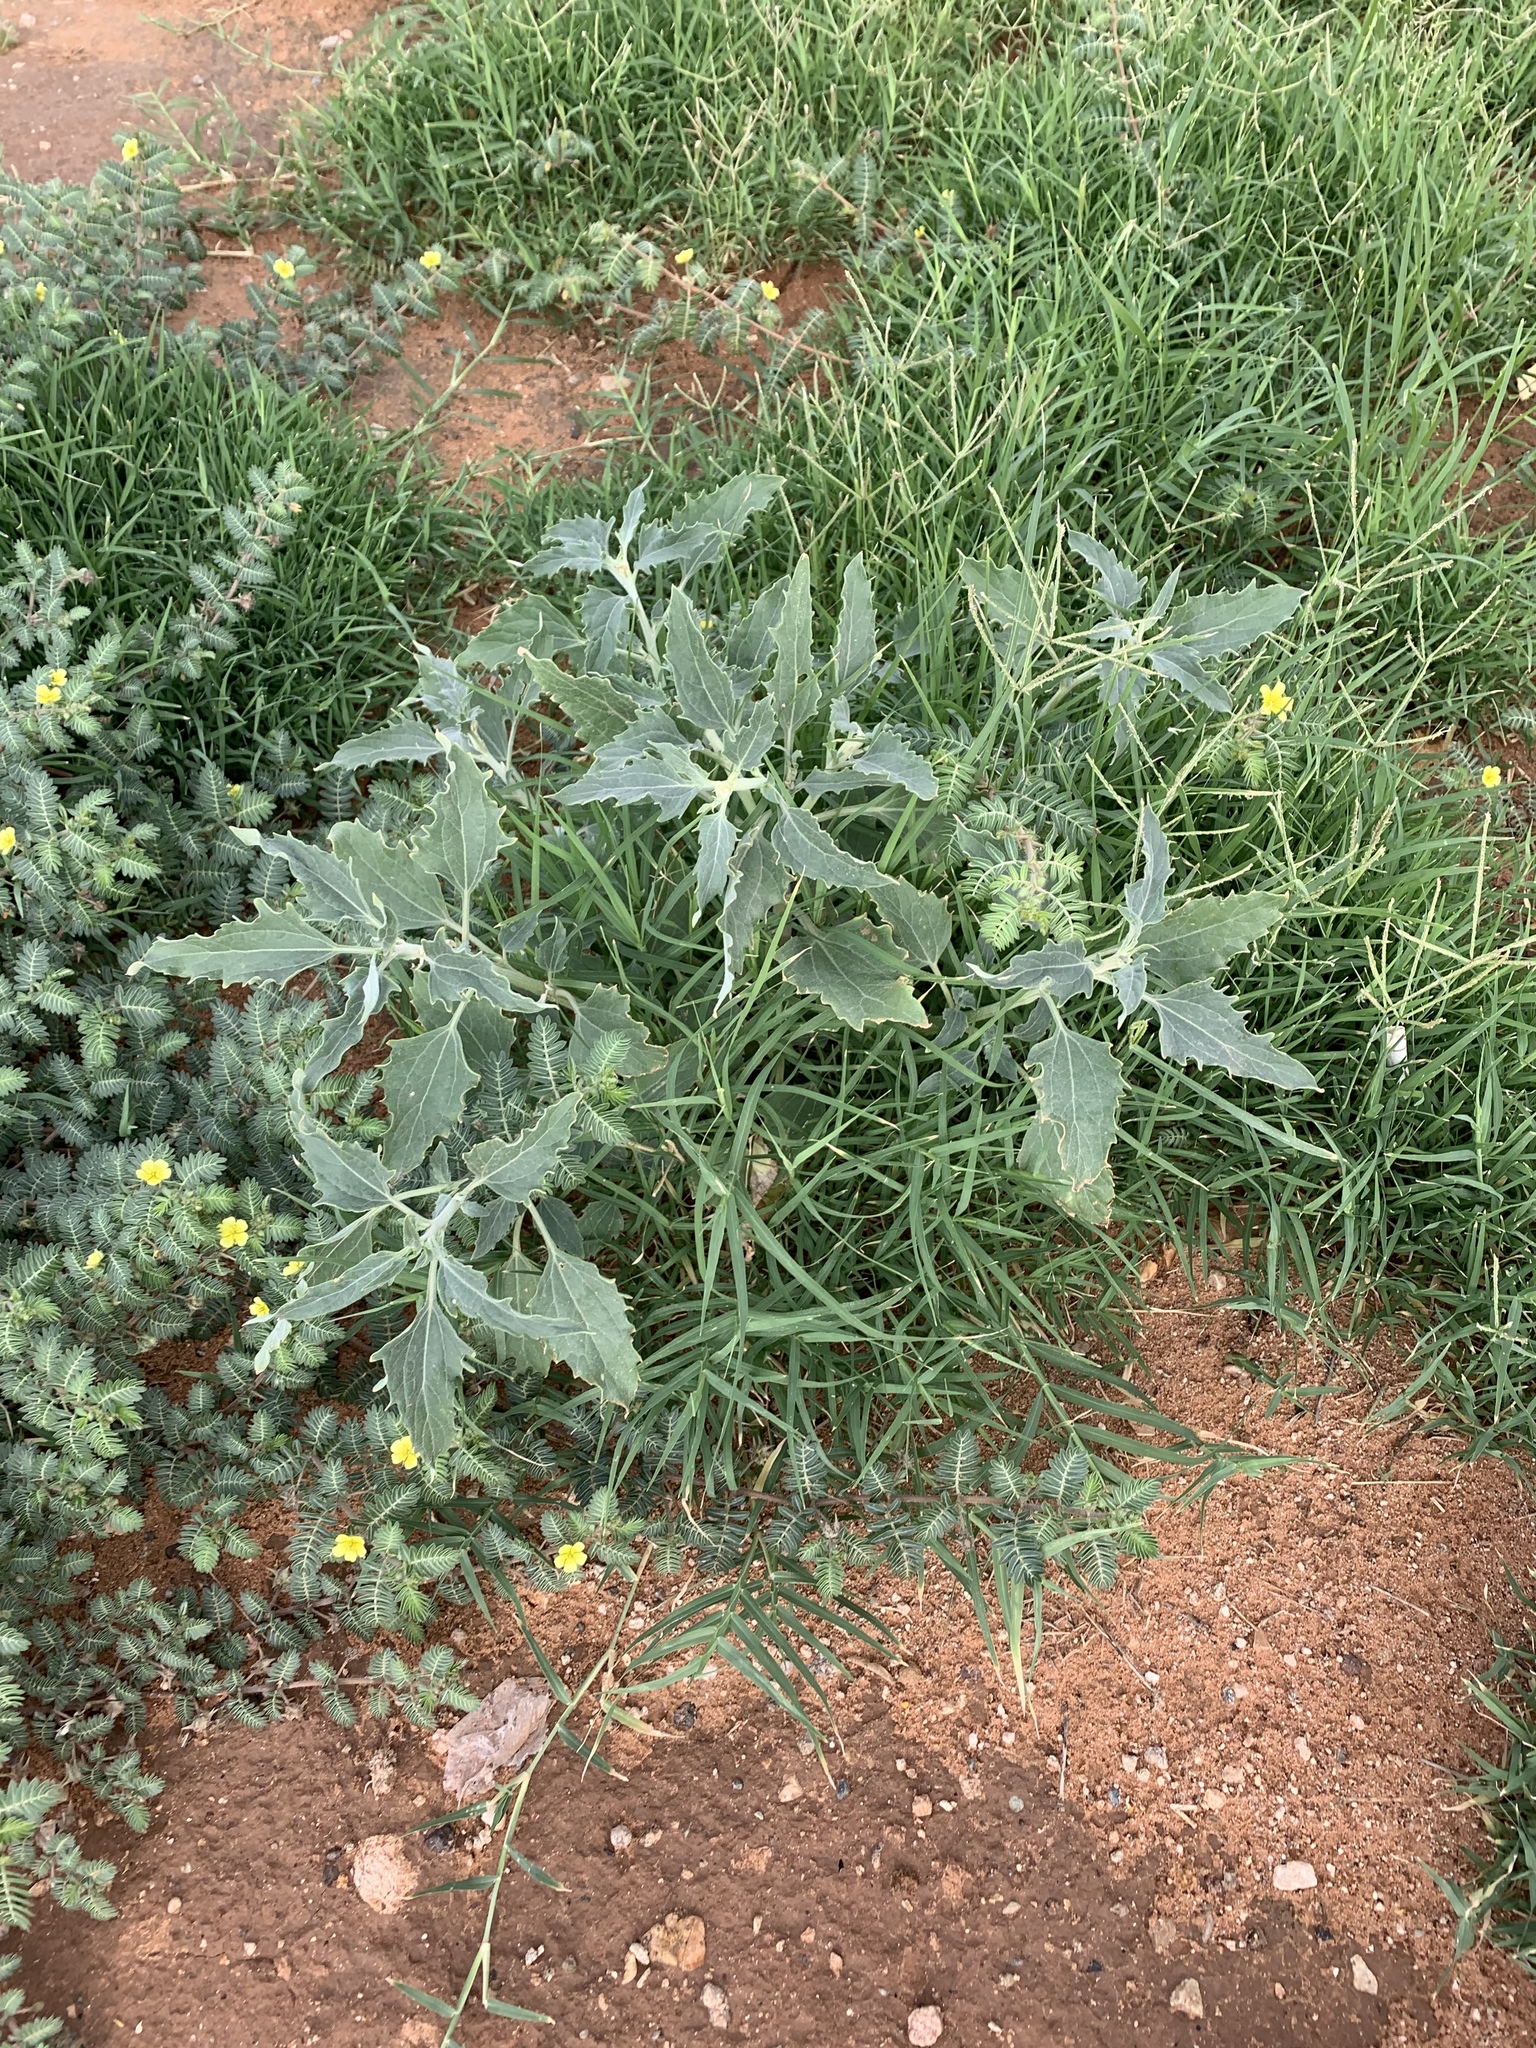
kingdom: Plantae
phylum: Tracheophyta
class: Magnoliopsida
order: Caryophyllales
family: Amaranthaceae
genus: Chenopodium
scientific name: Chenopodium album
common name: Fat-hen
